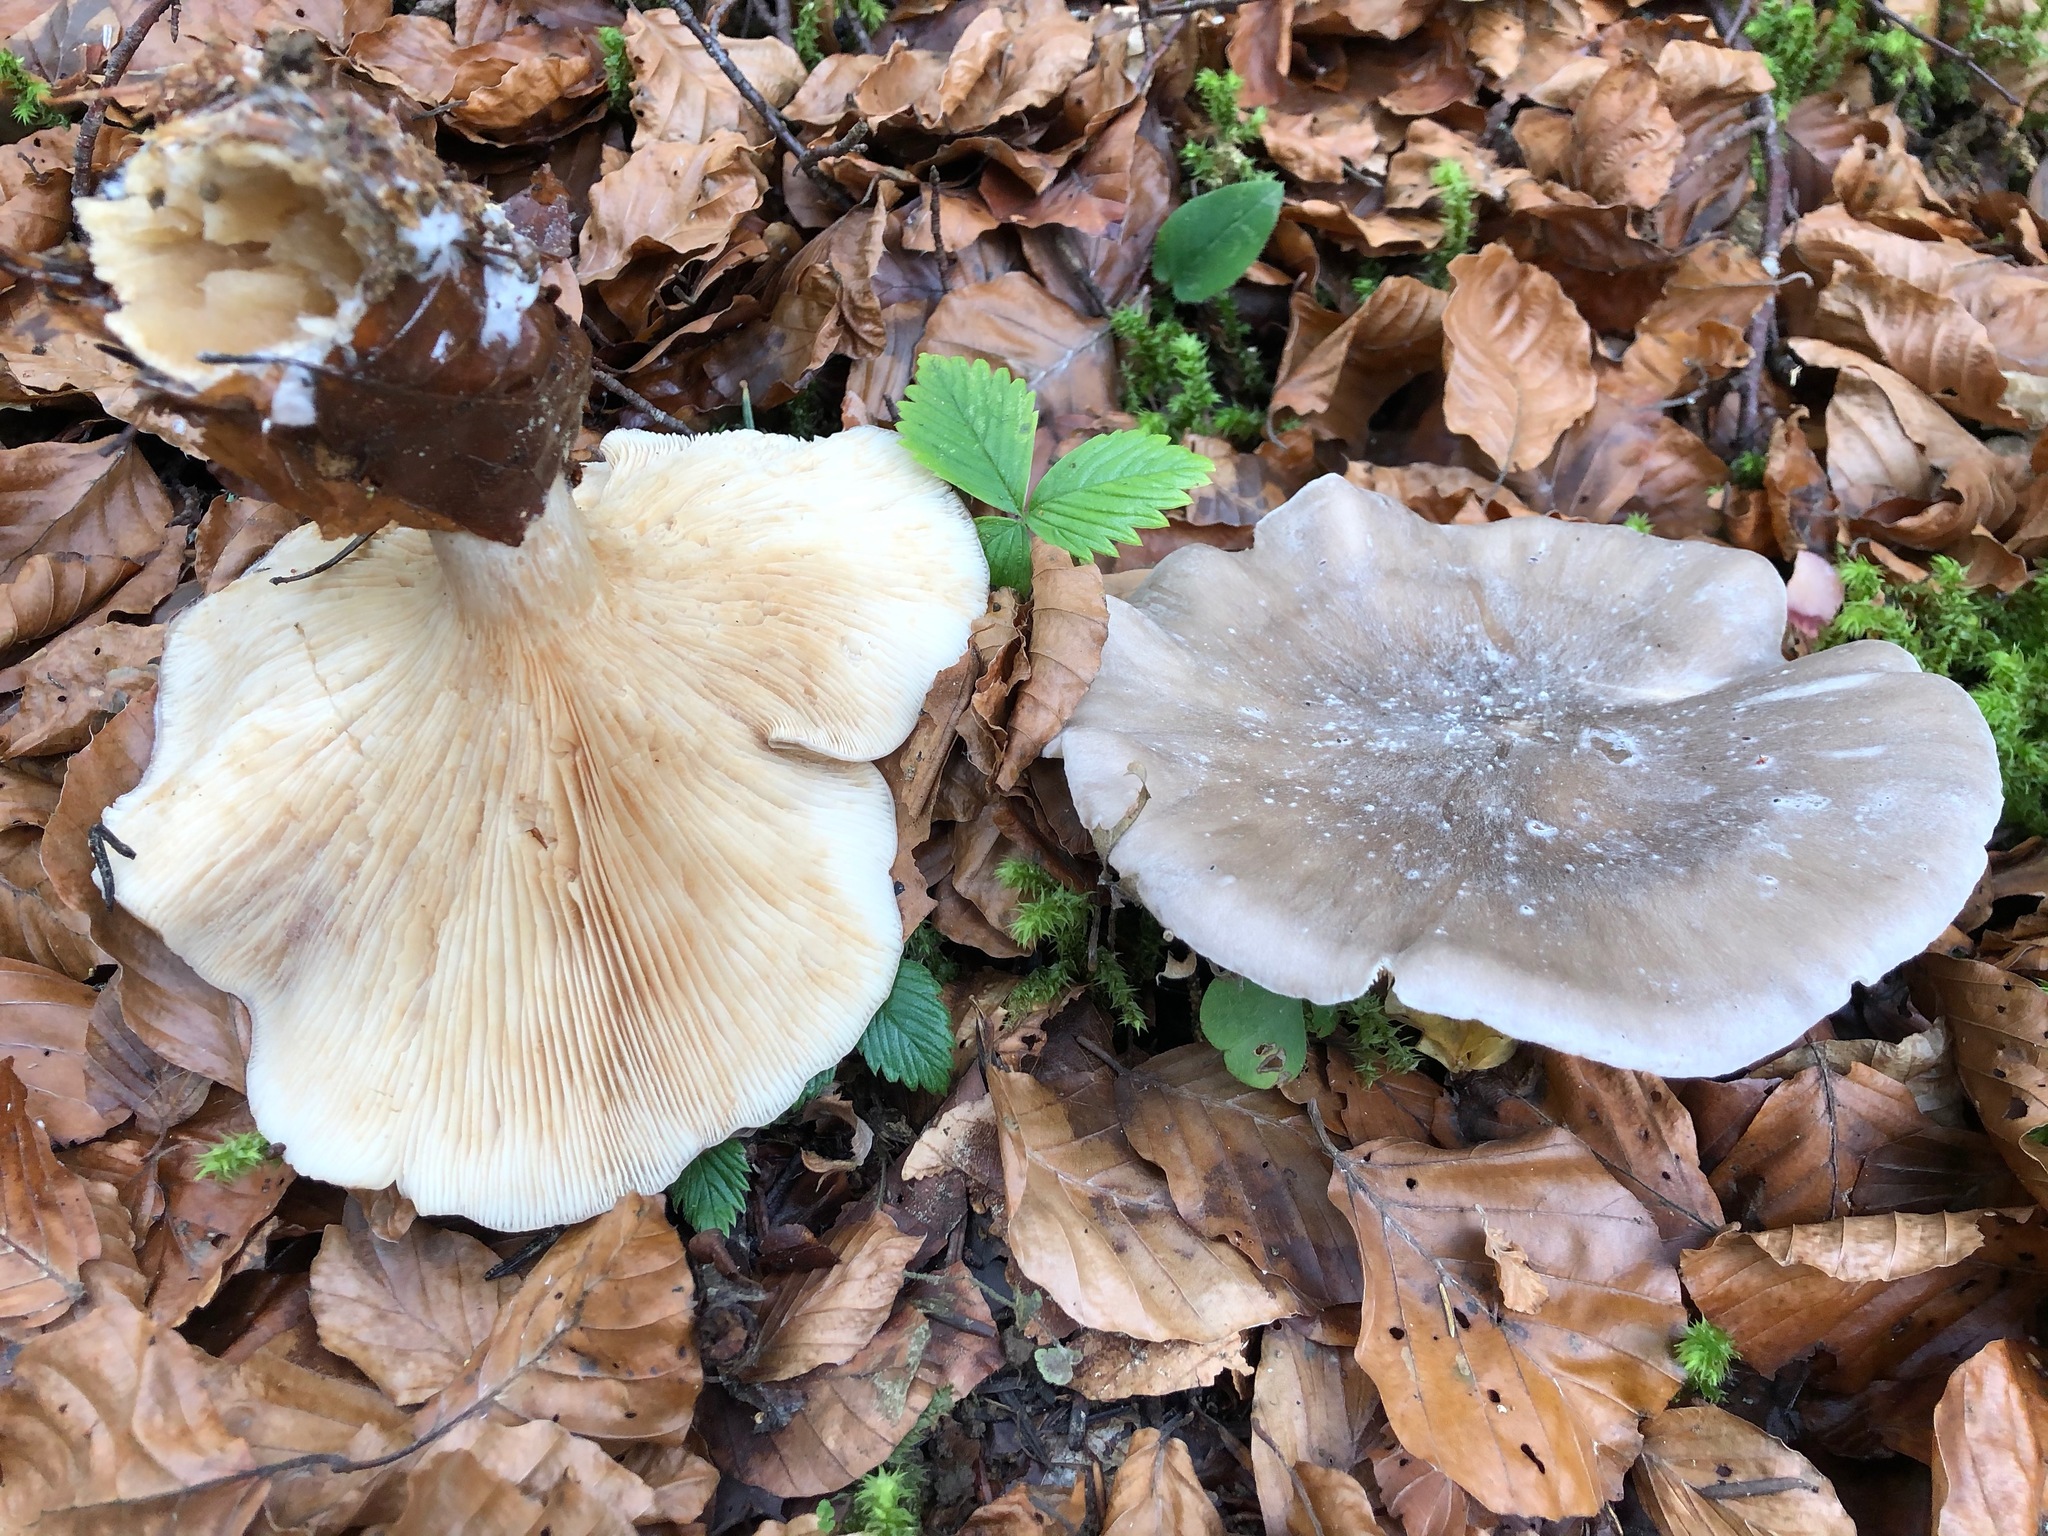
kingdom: Fungi
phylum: Basidiomycota
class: Agaricomycetes
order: Agaricales
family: Tricholomataceae
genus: Clitocybe
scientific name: Clitocybe nebularis
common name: Clouded agaric
